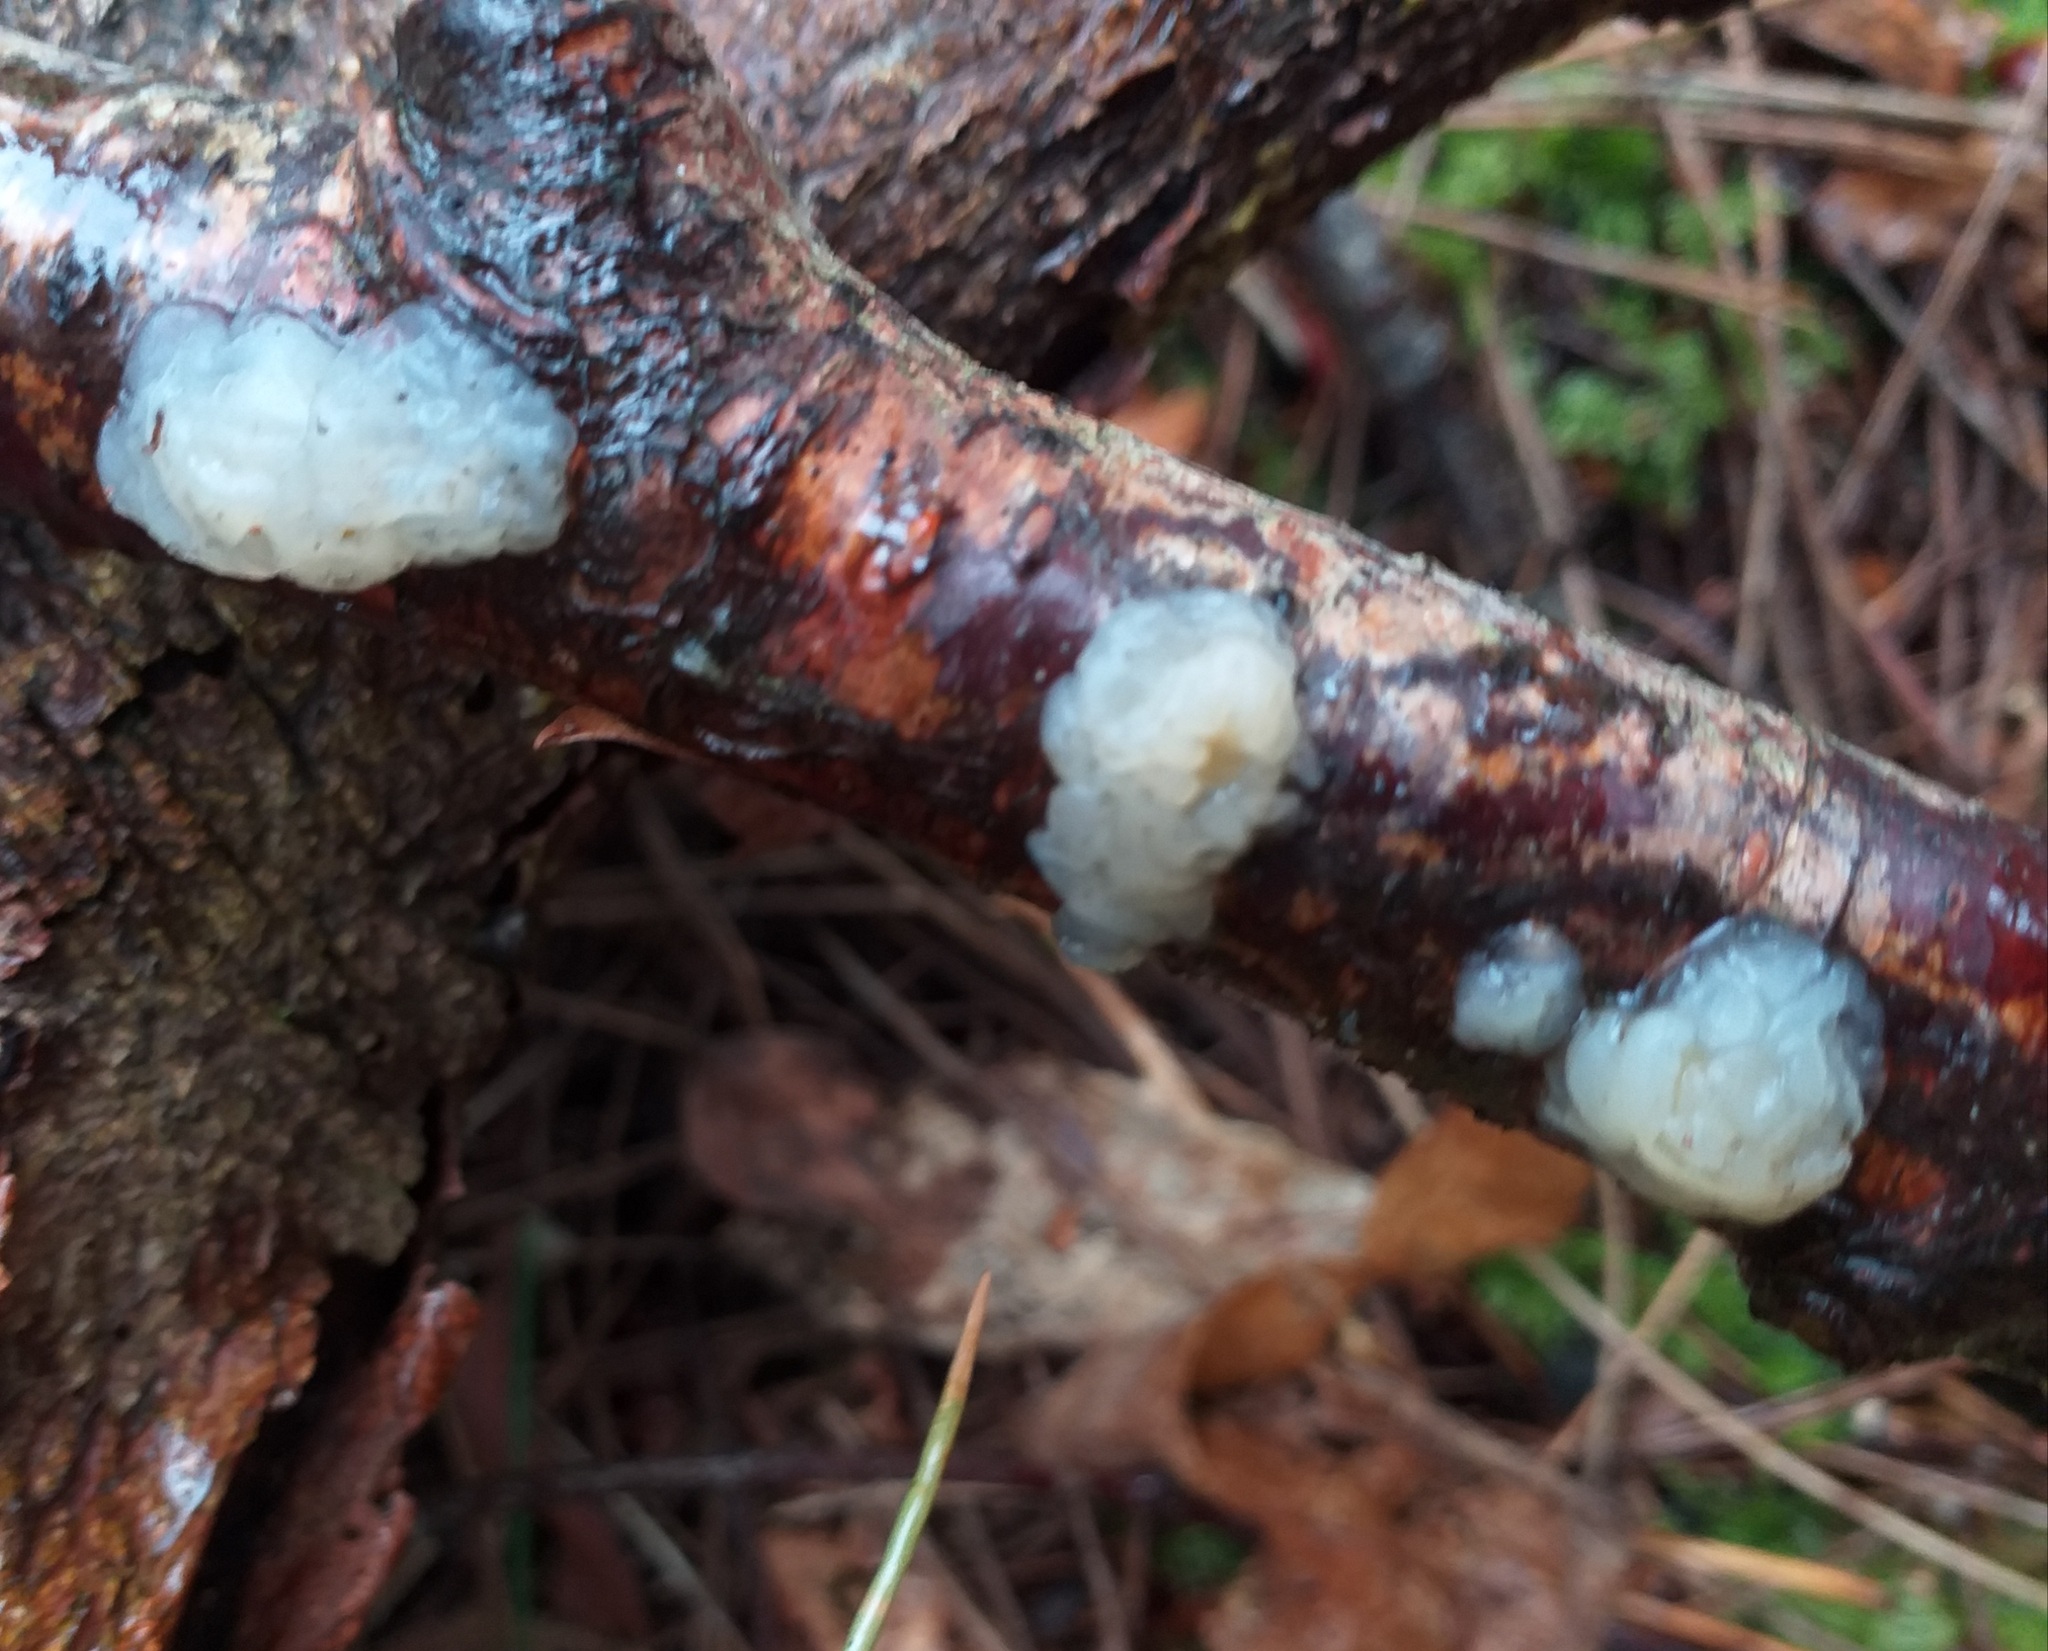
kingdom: Fungi
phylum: Basidiomycota
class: Agaricomycetes
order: Auriculariales
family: Hyaloriaceae
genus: Myxarium
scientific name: Myxarium nucleatum
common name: Crystal brain fungus
